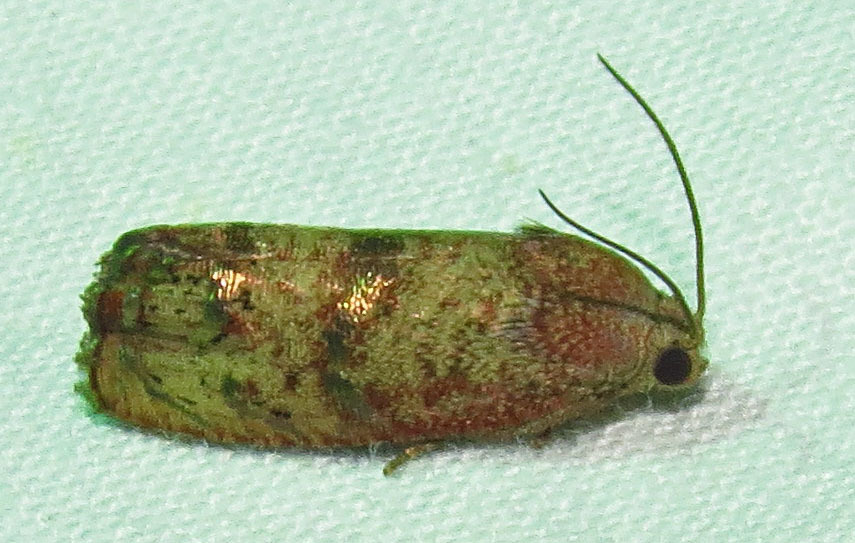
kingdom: Animalia
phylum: Arthropoda
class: Insecta
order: Lepidoptera
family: Tortricidae
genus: Cydia
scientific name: Cydia latiferreana
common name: Filbertworm moth
